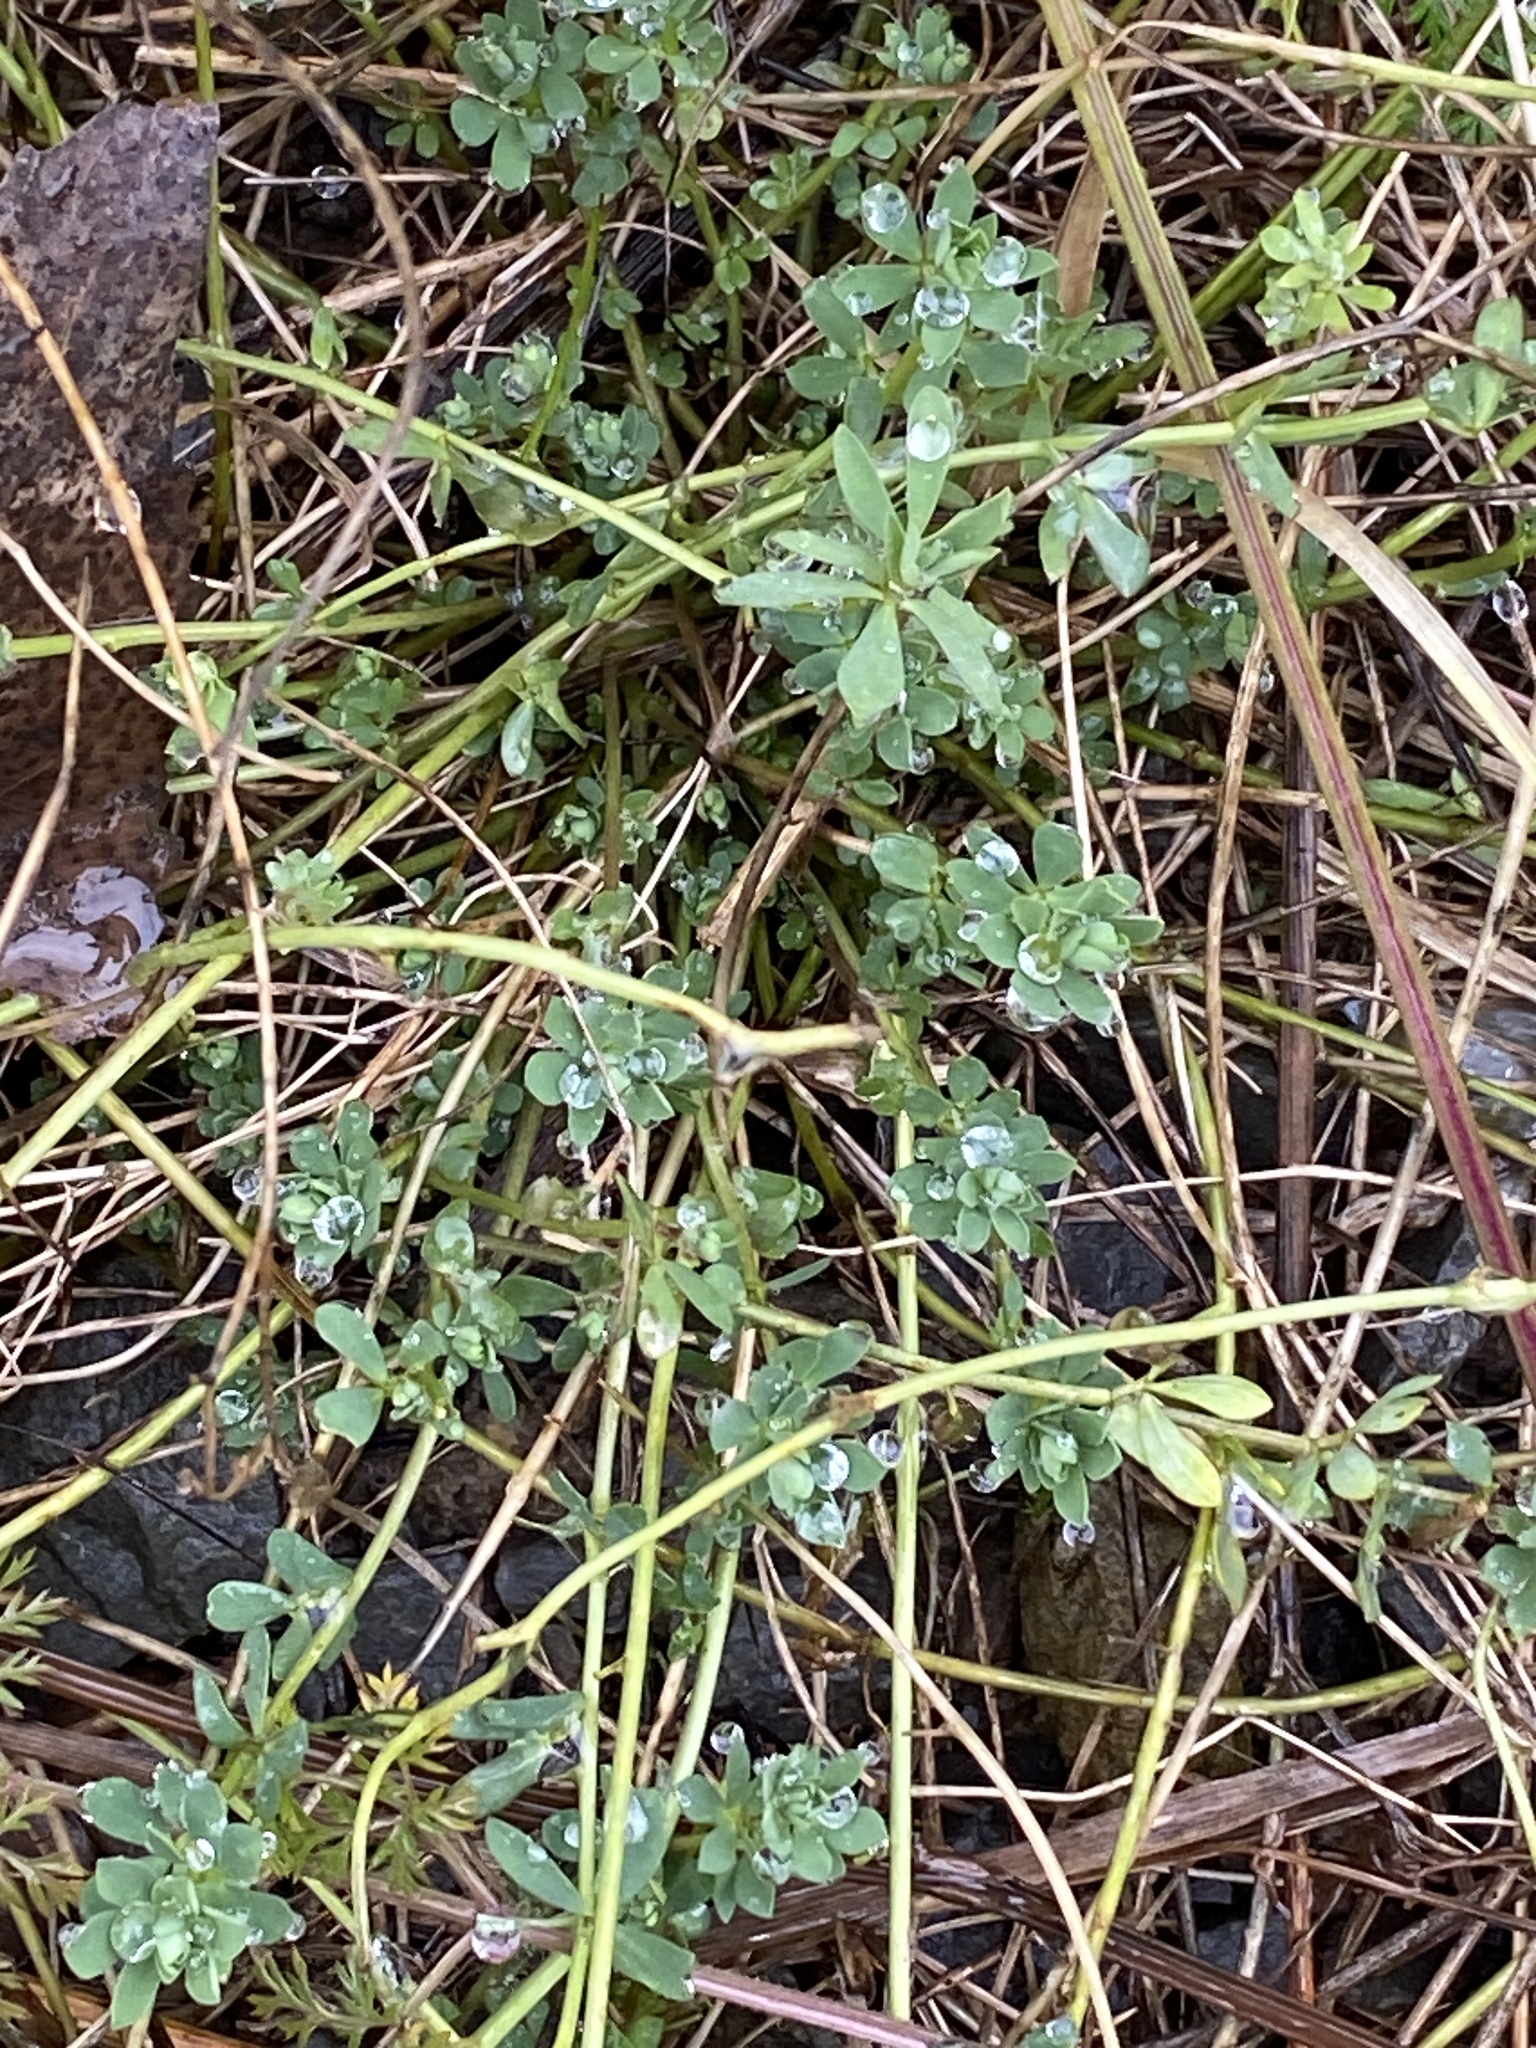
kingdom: Plantae
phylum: Tracheophyta
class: Magnoliopsida
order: Fabales
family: Fabaceae
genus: Lotus
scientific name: Lotus corniculatus
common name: Common bird's-foot-trefoil
